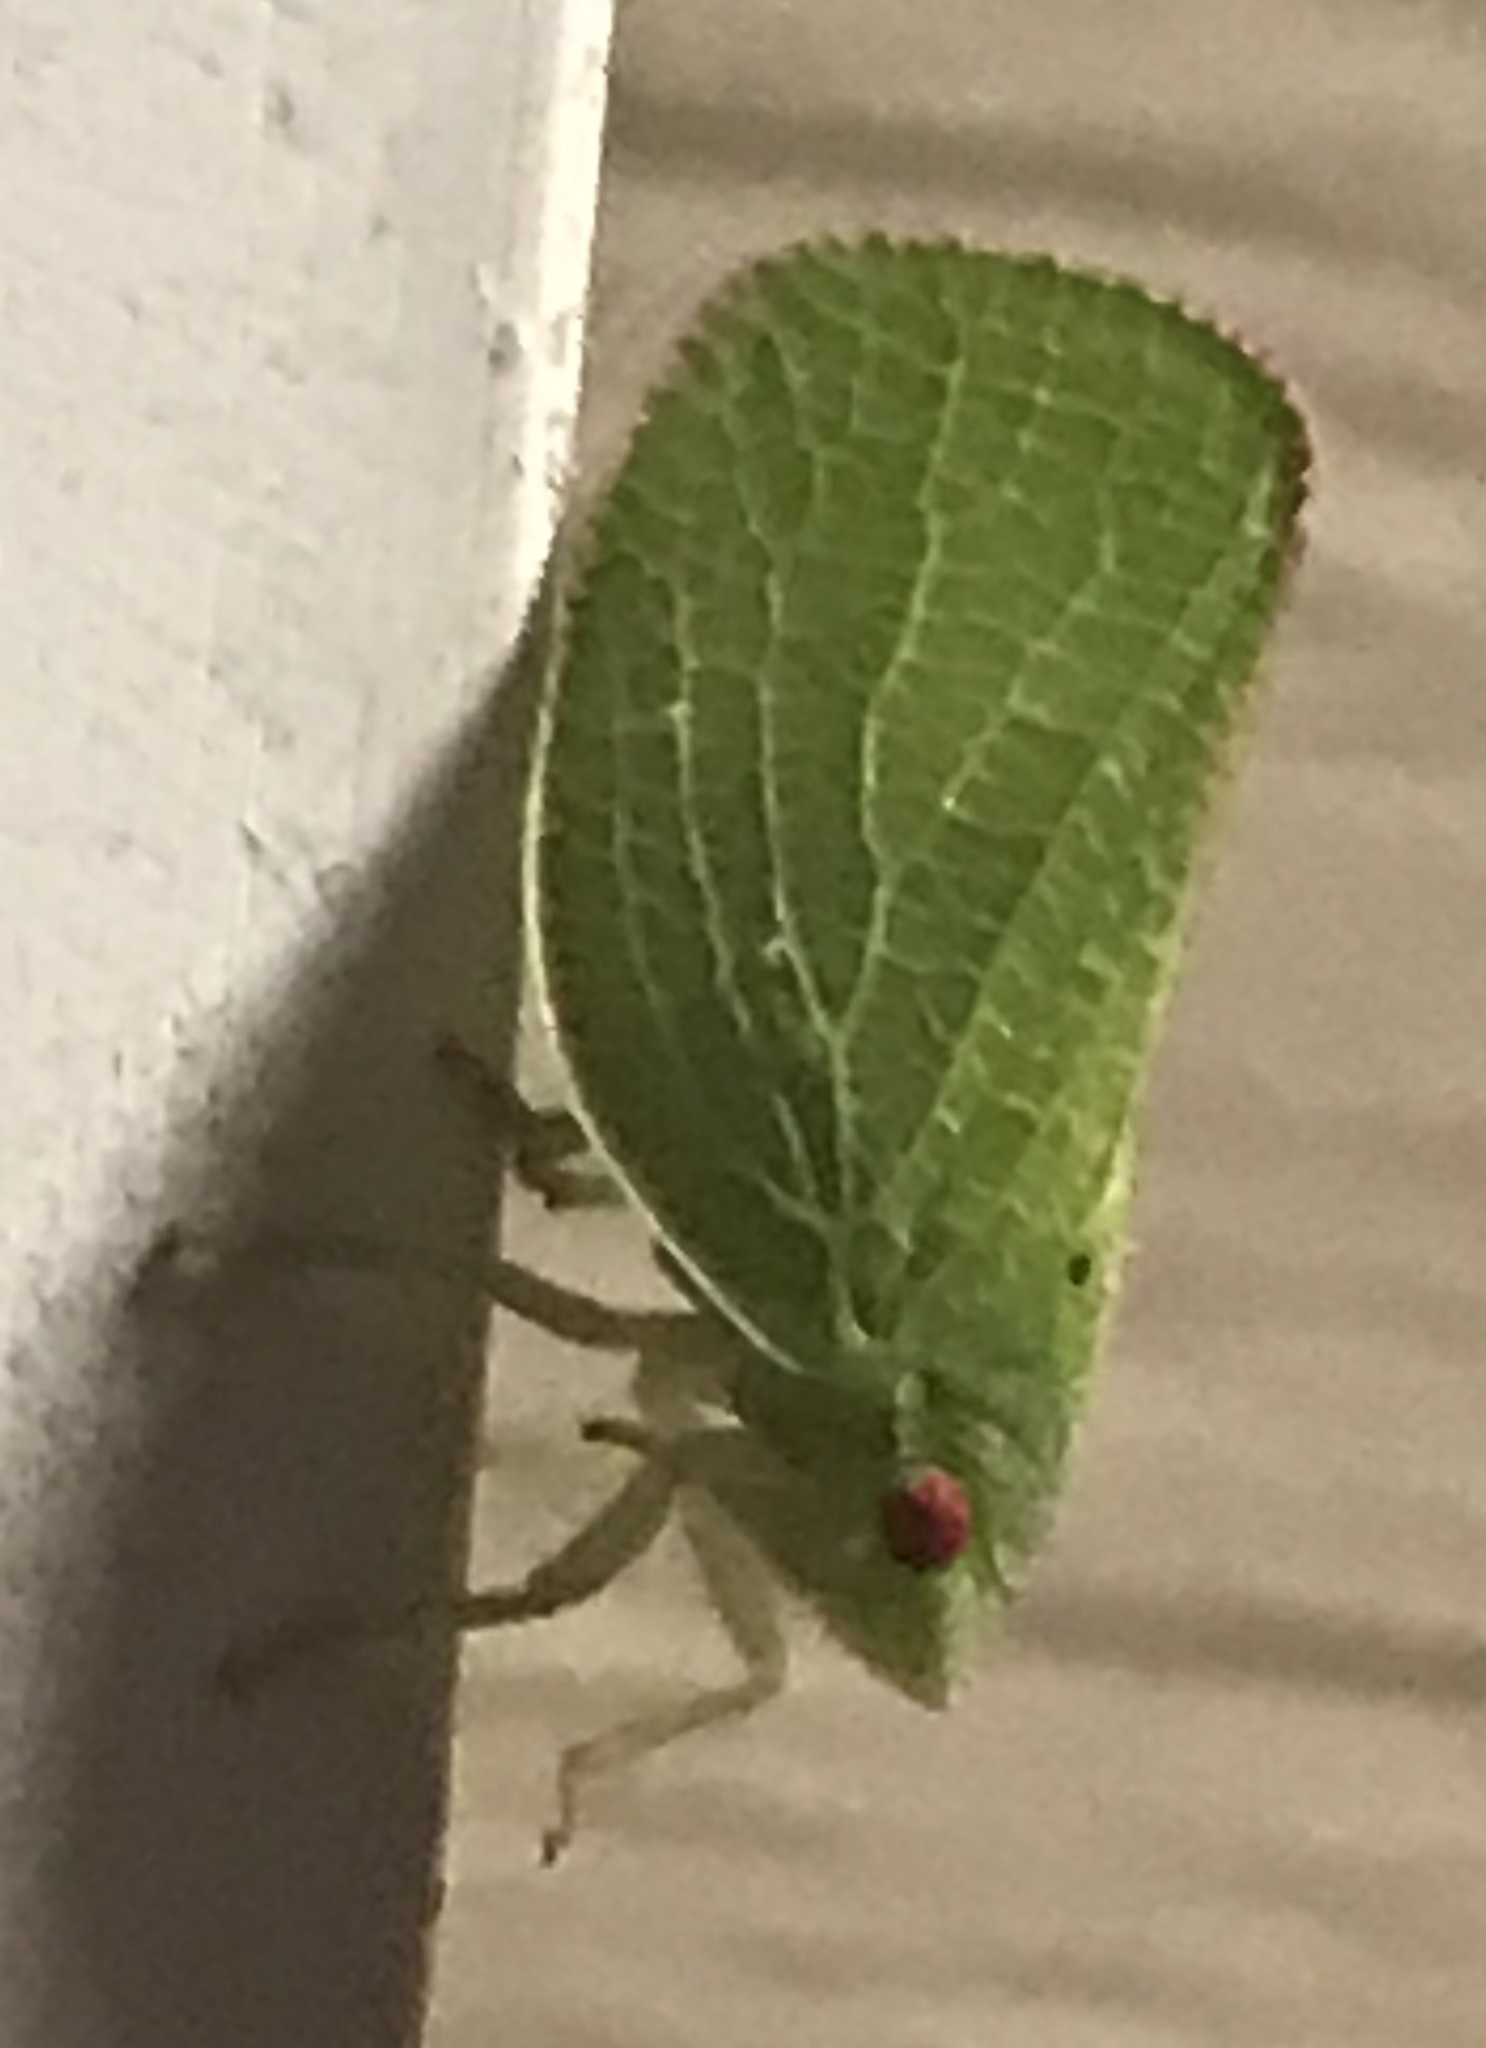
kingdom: Animalia
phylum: Arthropoda
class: Insecta
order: Hemiptera
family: Acanaloniidae
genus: Acanalonia
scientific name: Acanalonia conica
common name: Green cone-headed planthopper
